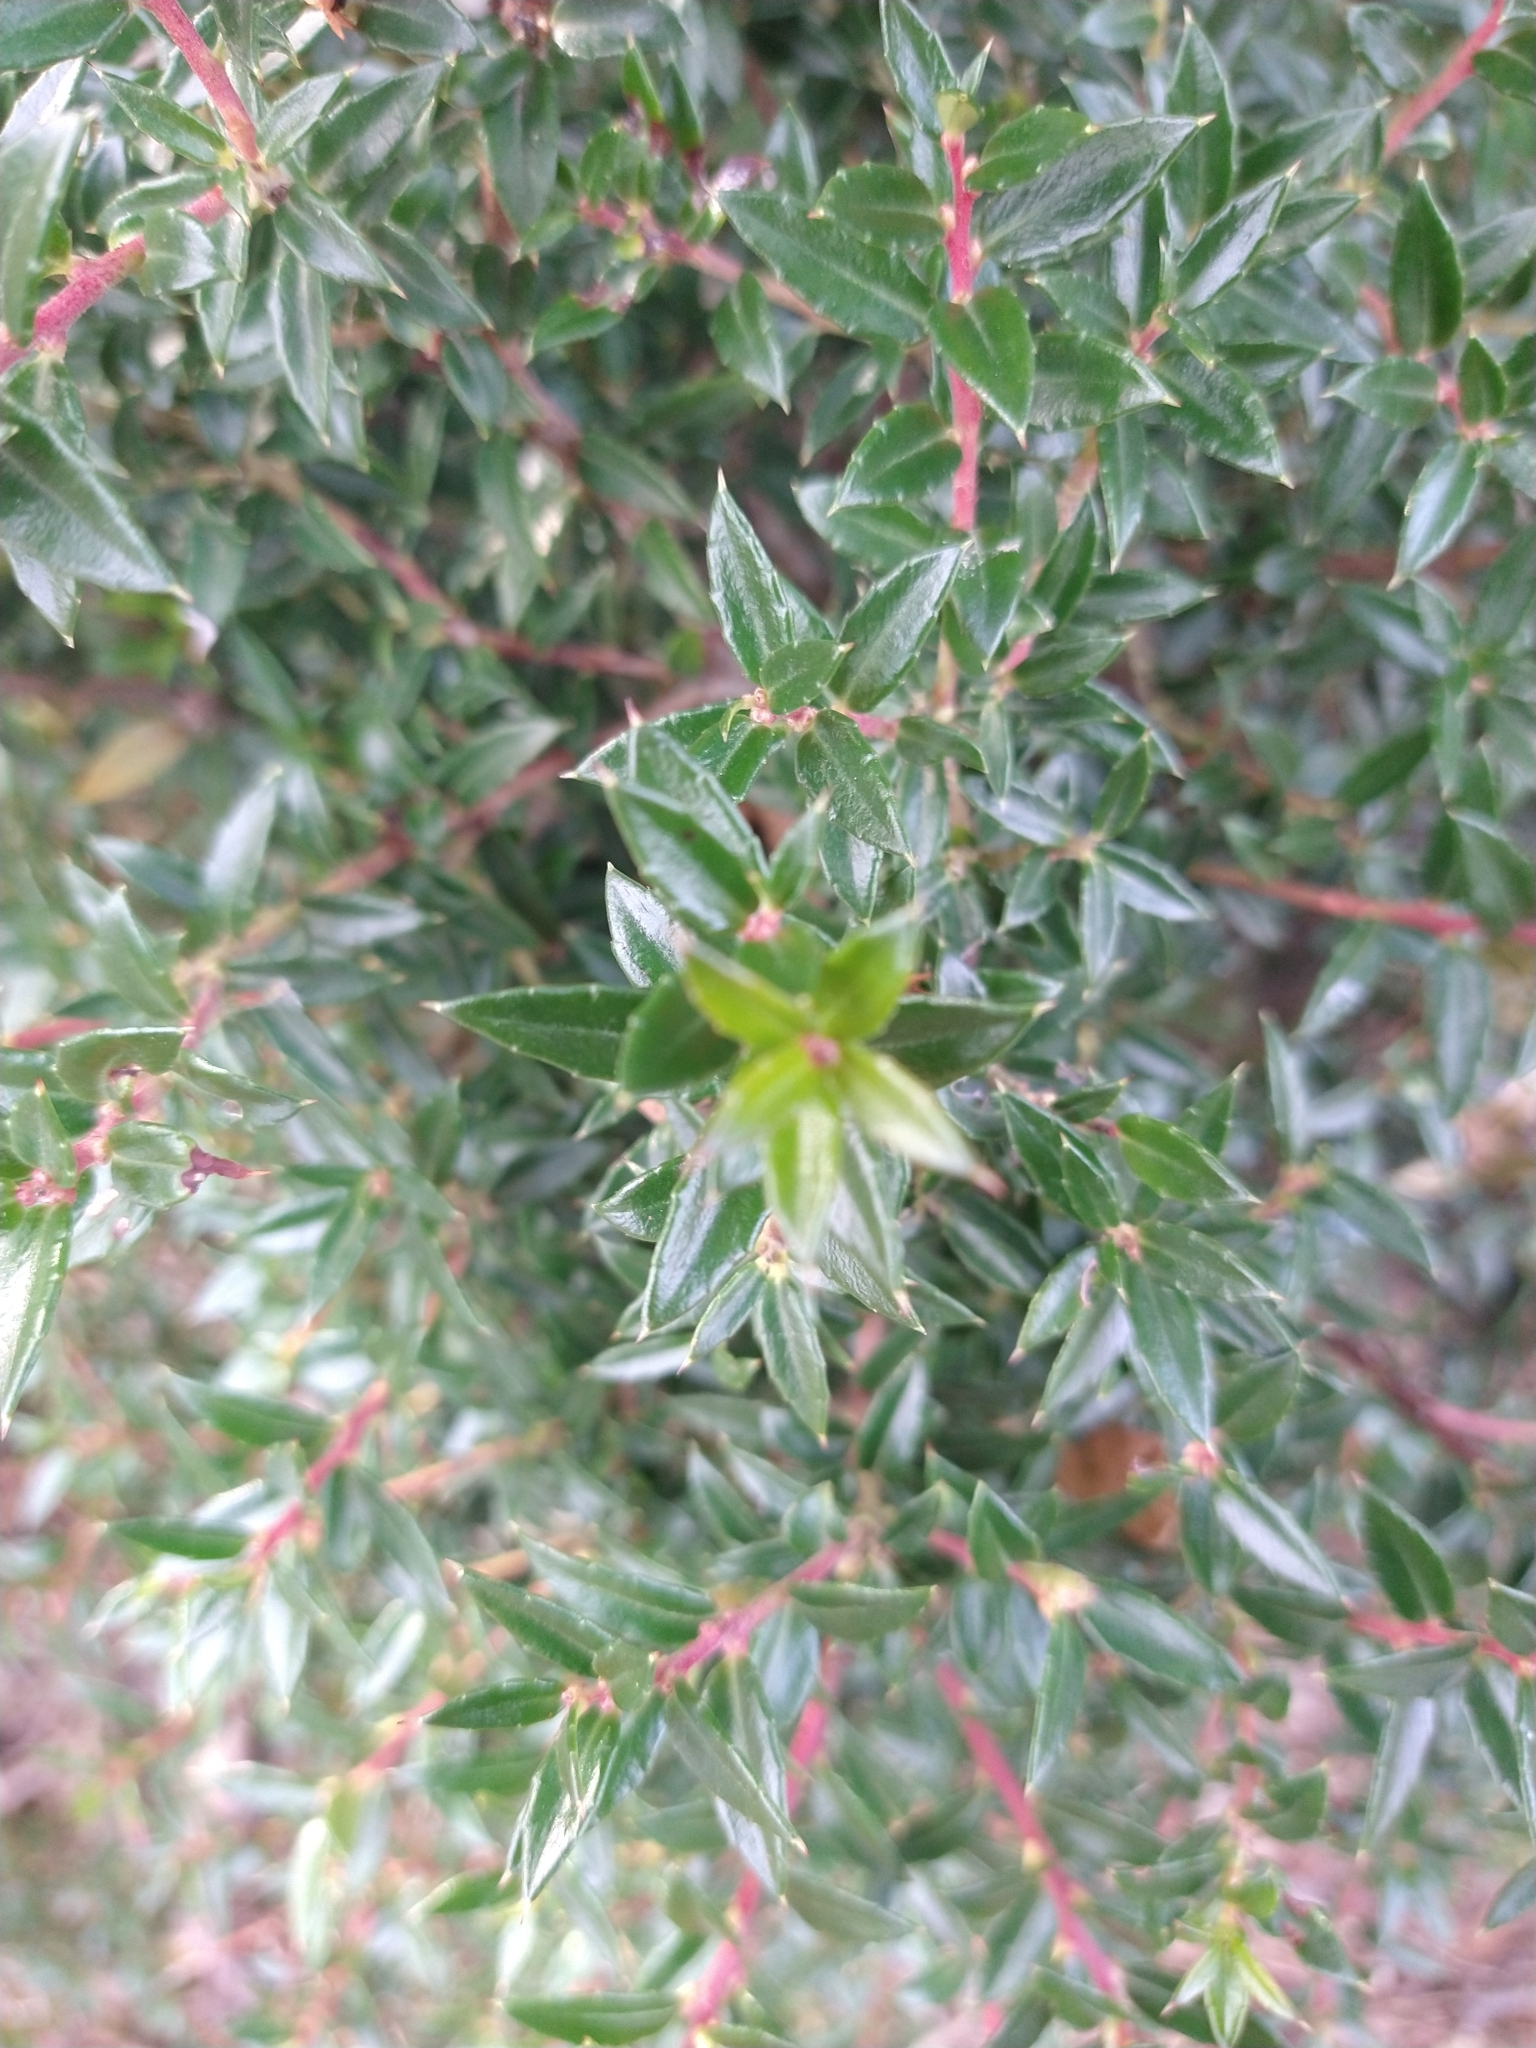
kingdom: Plantae
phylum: Tracheophyta
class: Magnoliopsida
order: Ericales
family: Ericaceae
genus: Gaultheria
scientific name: Gaultheria mucronata
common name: Prickly heath
